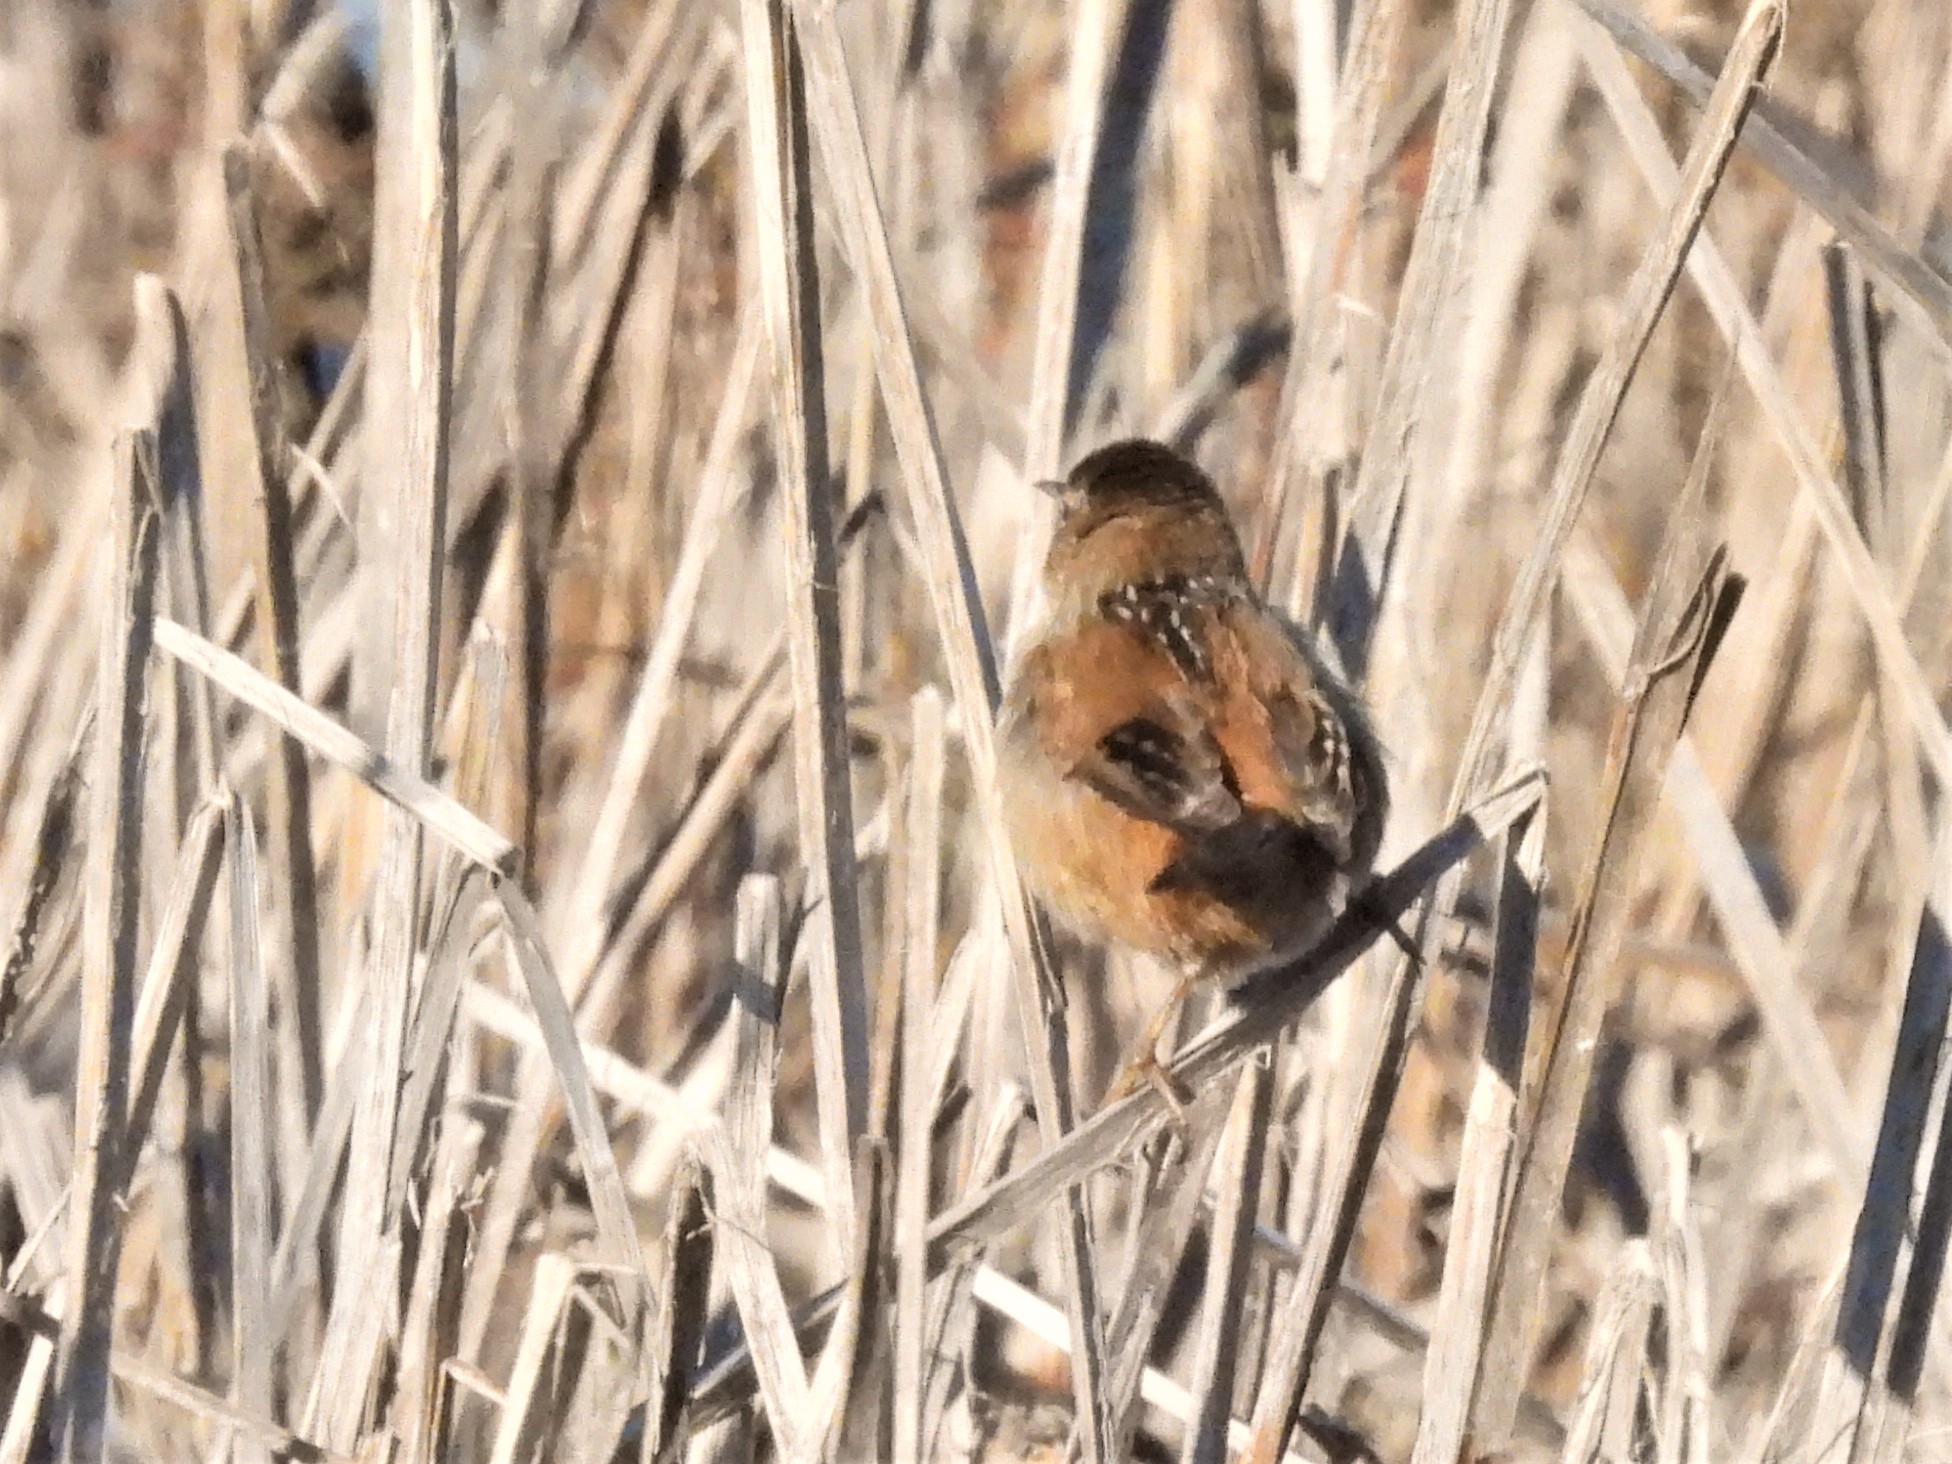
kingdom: Animalia
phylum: Chordata
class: Aves
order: Passeriformes
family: Troglodytidae
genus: Cistothorus
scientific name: Cistothorus palustris
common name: Marsh wren
